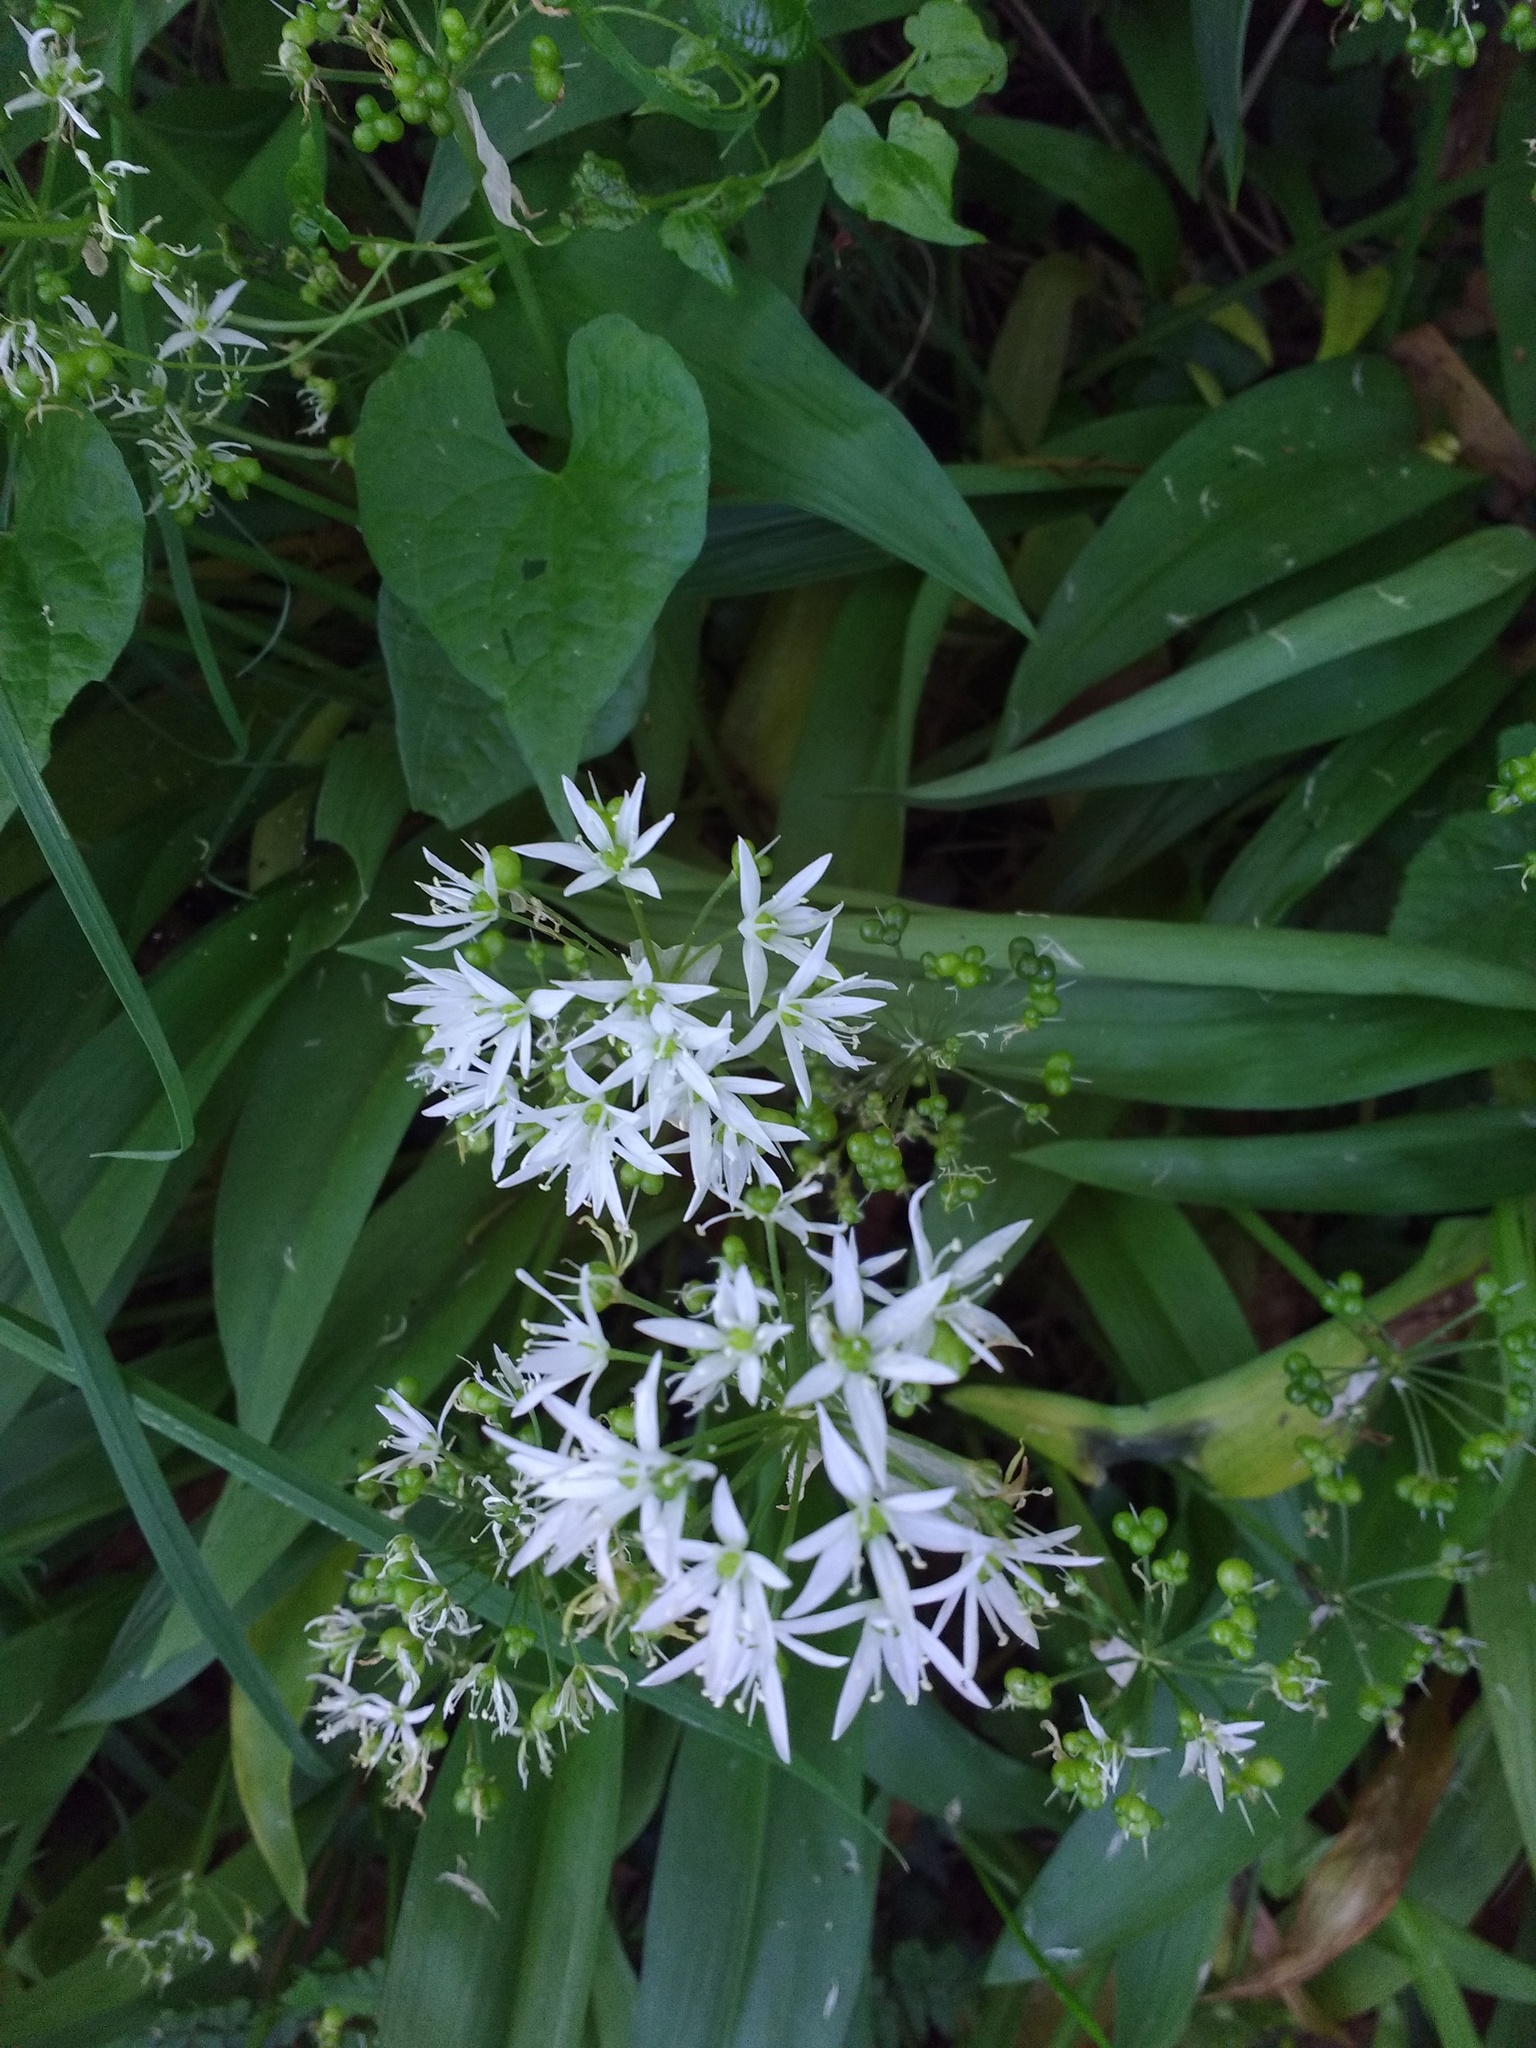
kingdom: Plantae
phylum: Tracheophyta
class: Liliopsida
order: Asparagales
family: Amaryllidaceae
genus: Allium
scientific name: Allium ursinum
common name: Ramsons
